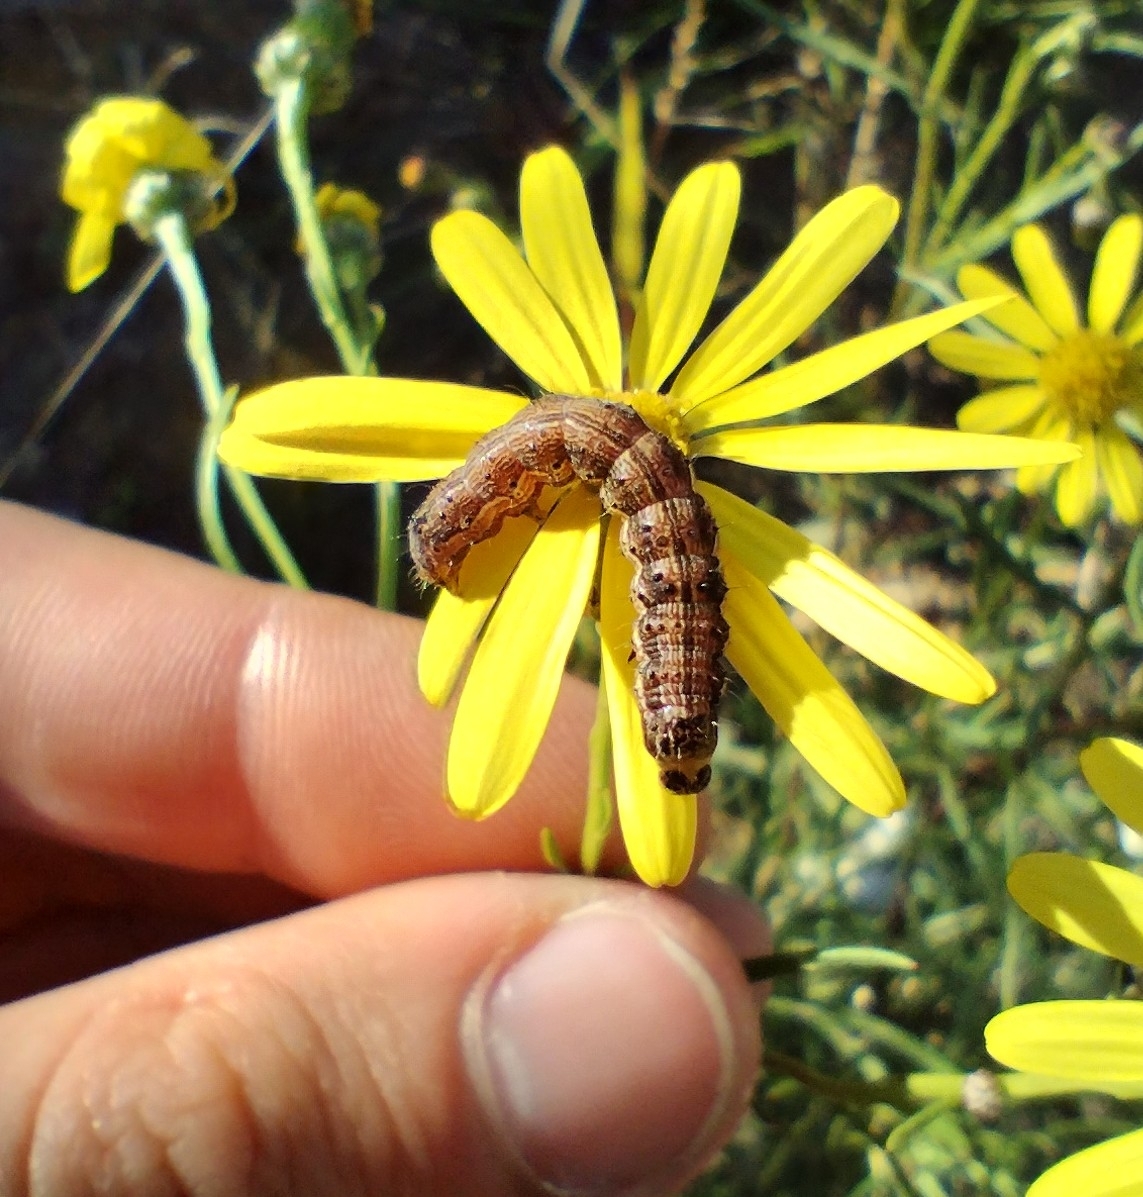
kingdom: Animalia
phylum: Arthropoda
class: Insecta
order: Lepidoptera
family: Noctuidae
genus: Helicoverpa
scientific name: Helicoverpa armigera
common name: Cotton bollworm
